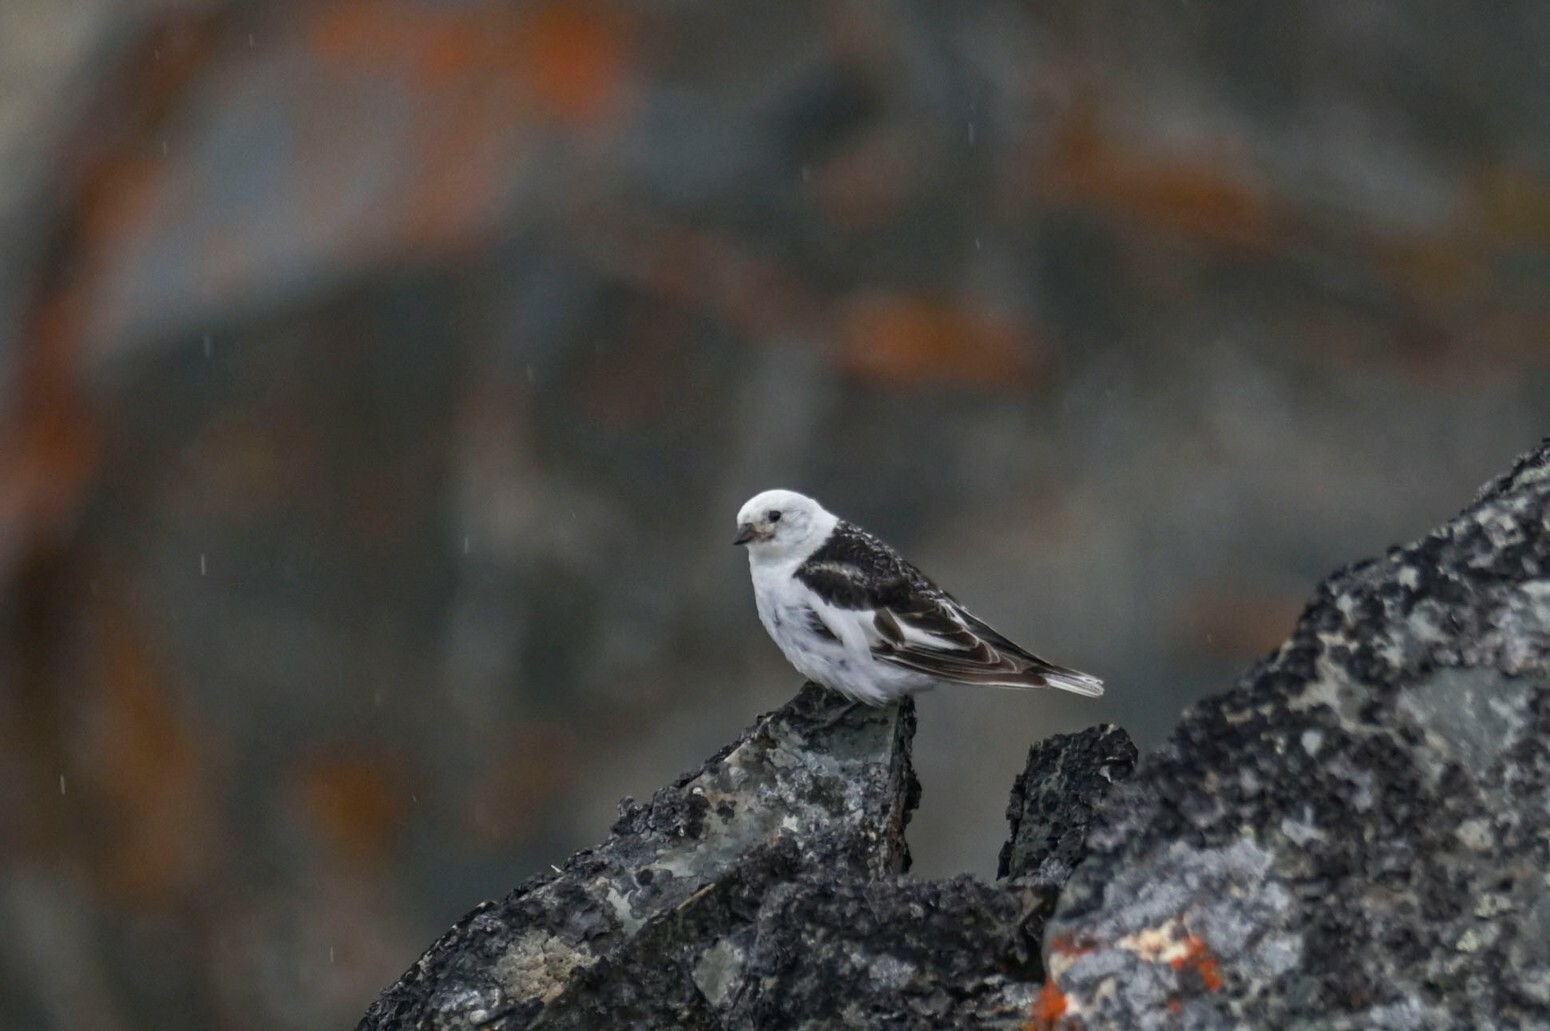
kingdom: Animalia
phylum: Chordata
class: Aves
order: Passeriformes
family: Calcariidae
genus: Plectrophenax
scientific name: Plectrophenax nivalis
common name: Snow bunting
